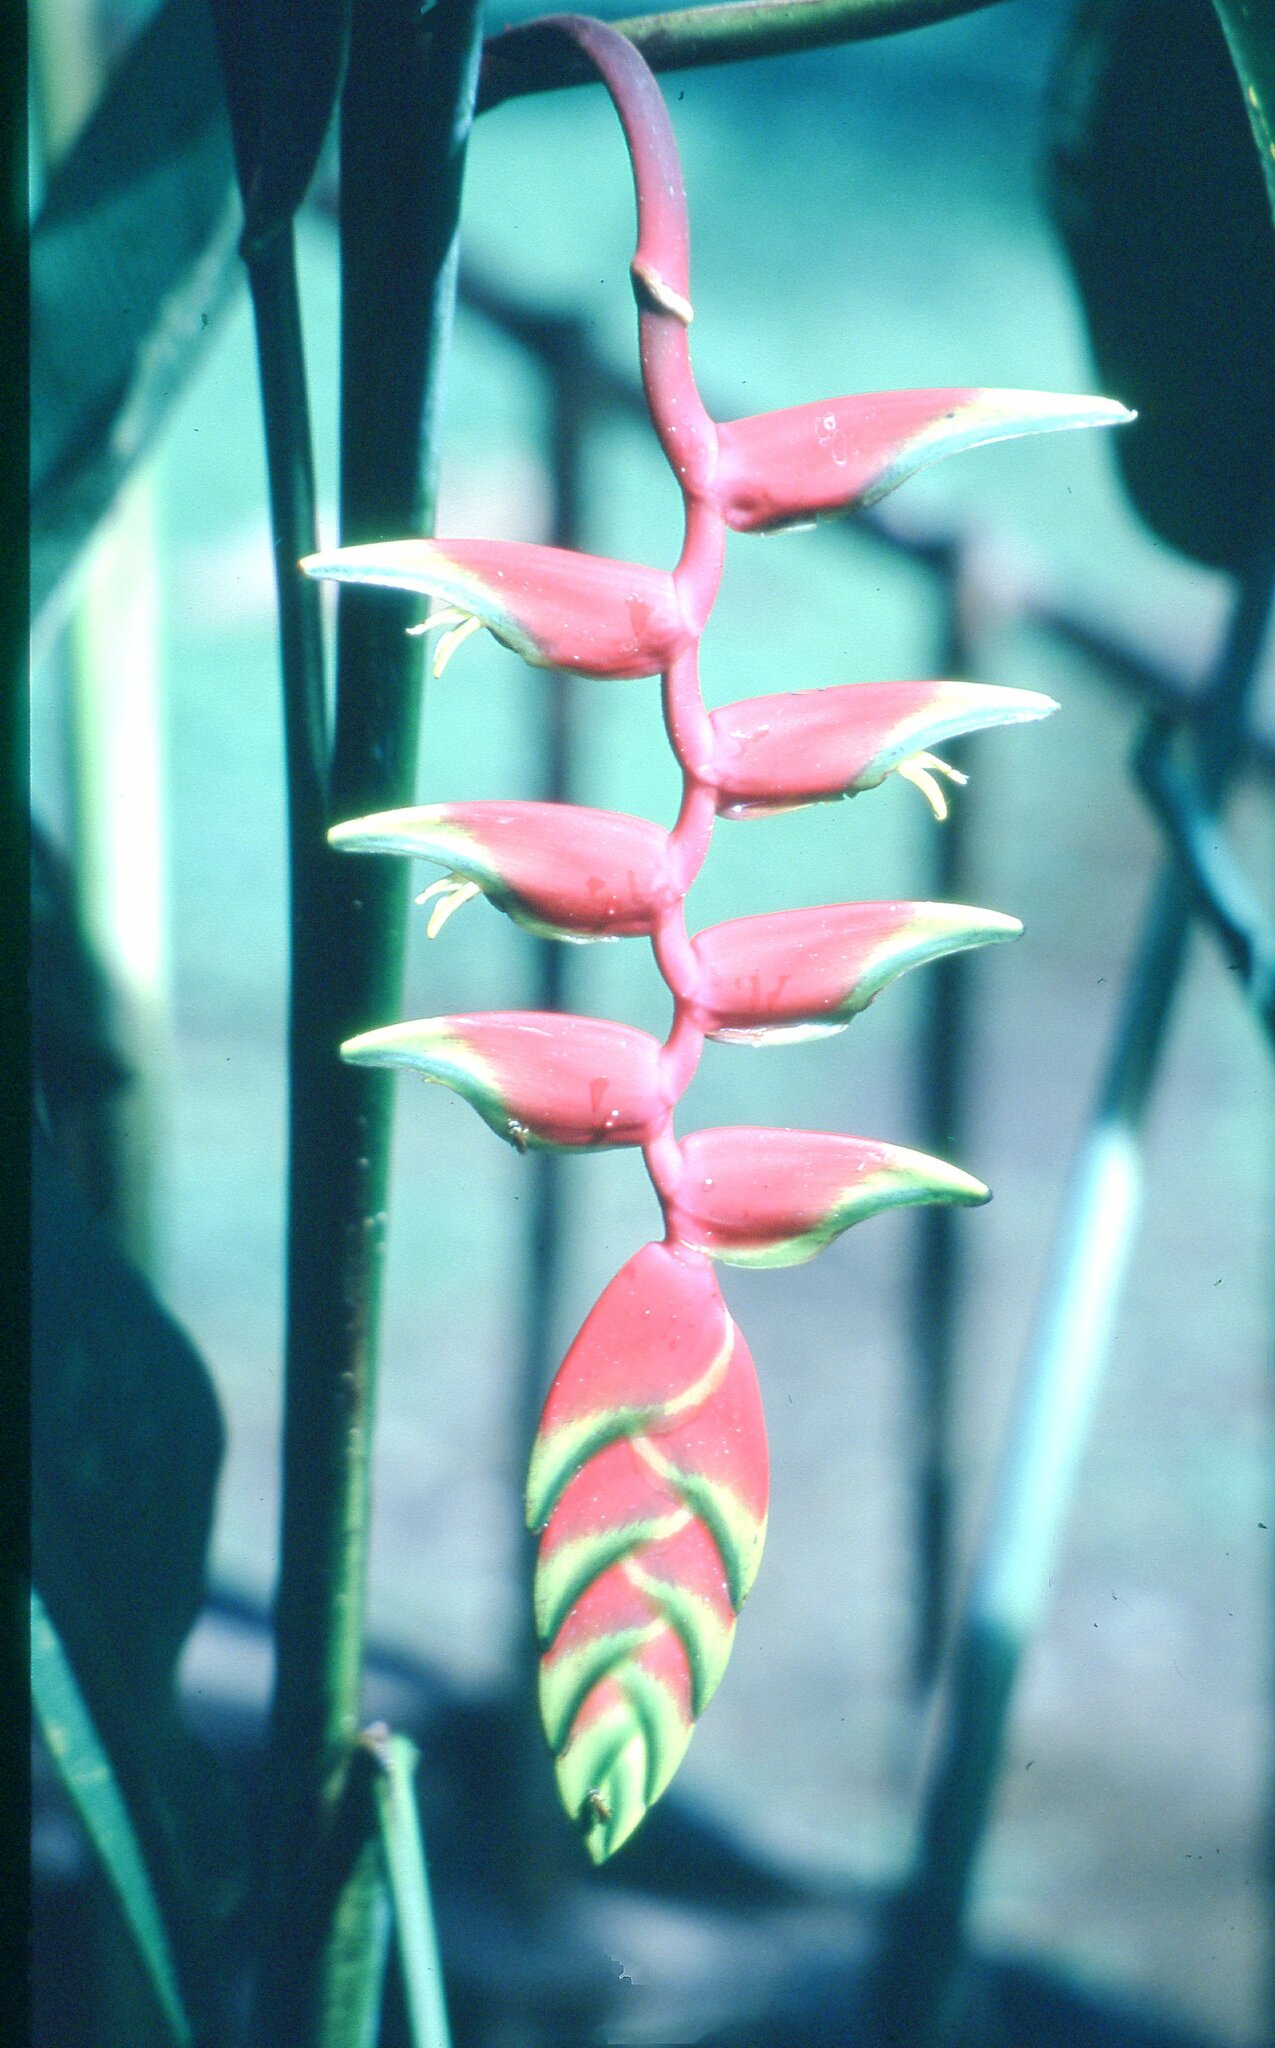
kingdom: Plantae
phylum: Tracheophyta
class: Liliopsida
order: Zingiberales
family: Heliconiaceae
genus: Heliconia
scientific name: Heliconia rostrata
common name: False bird of paradise
